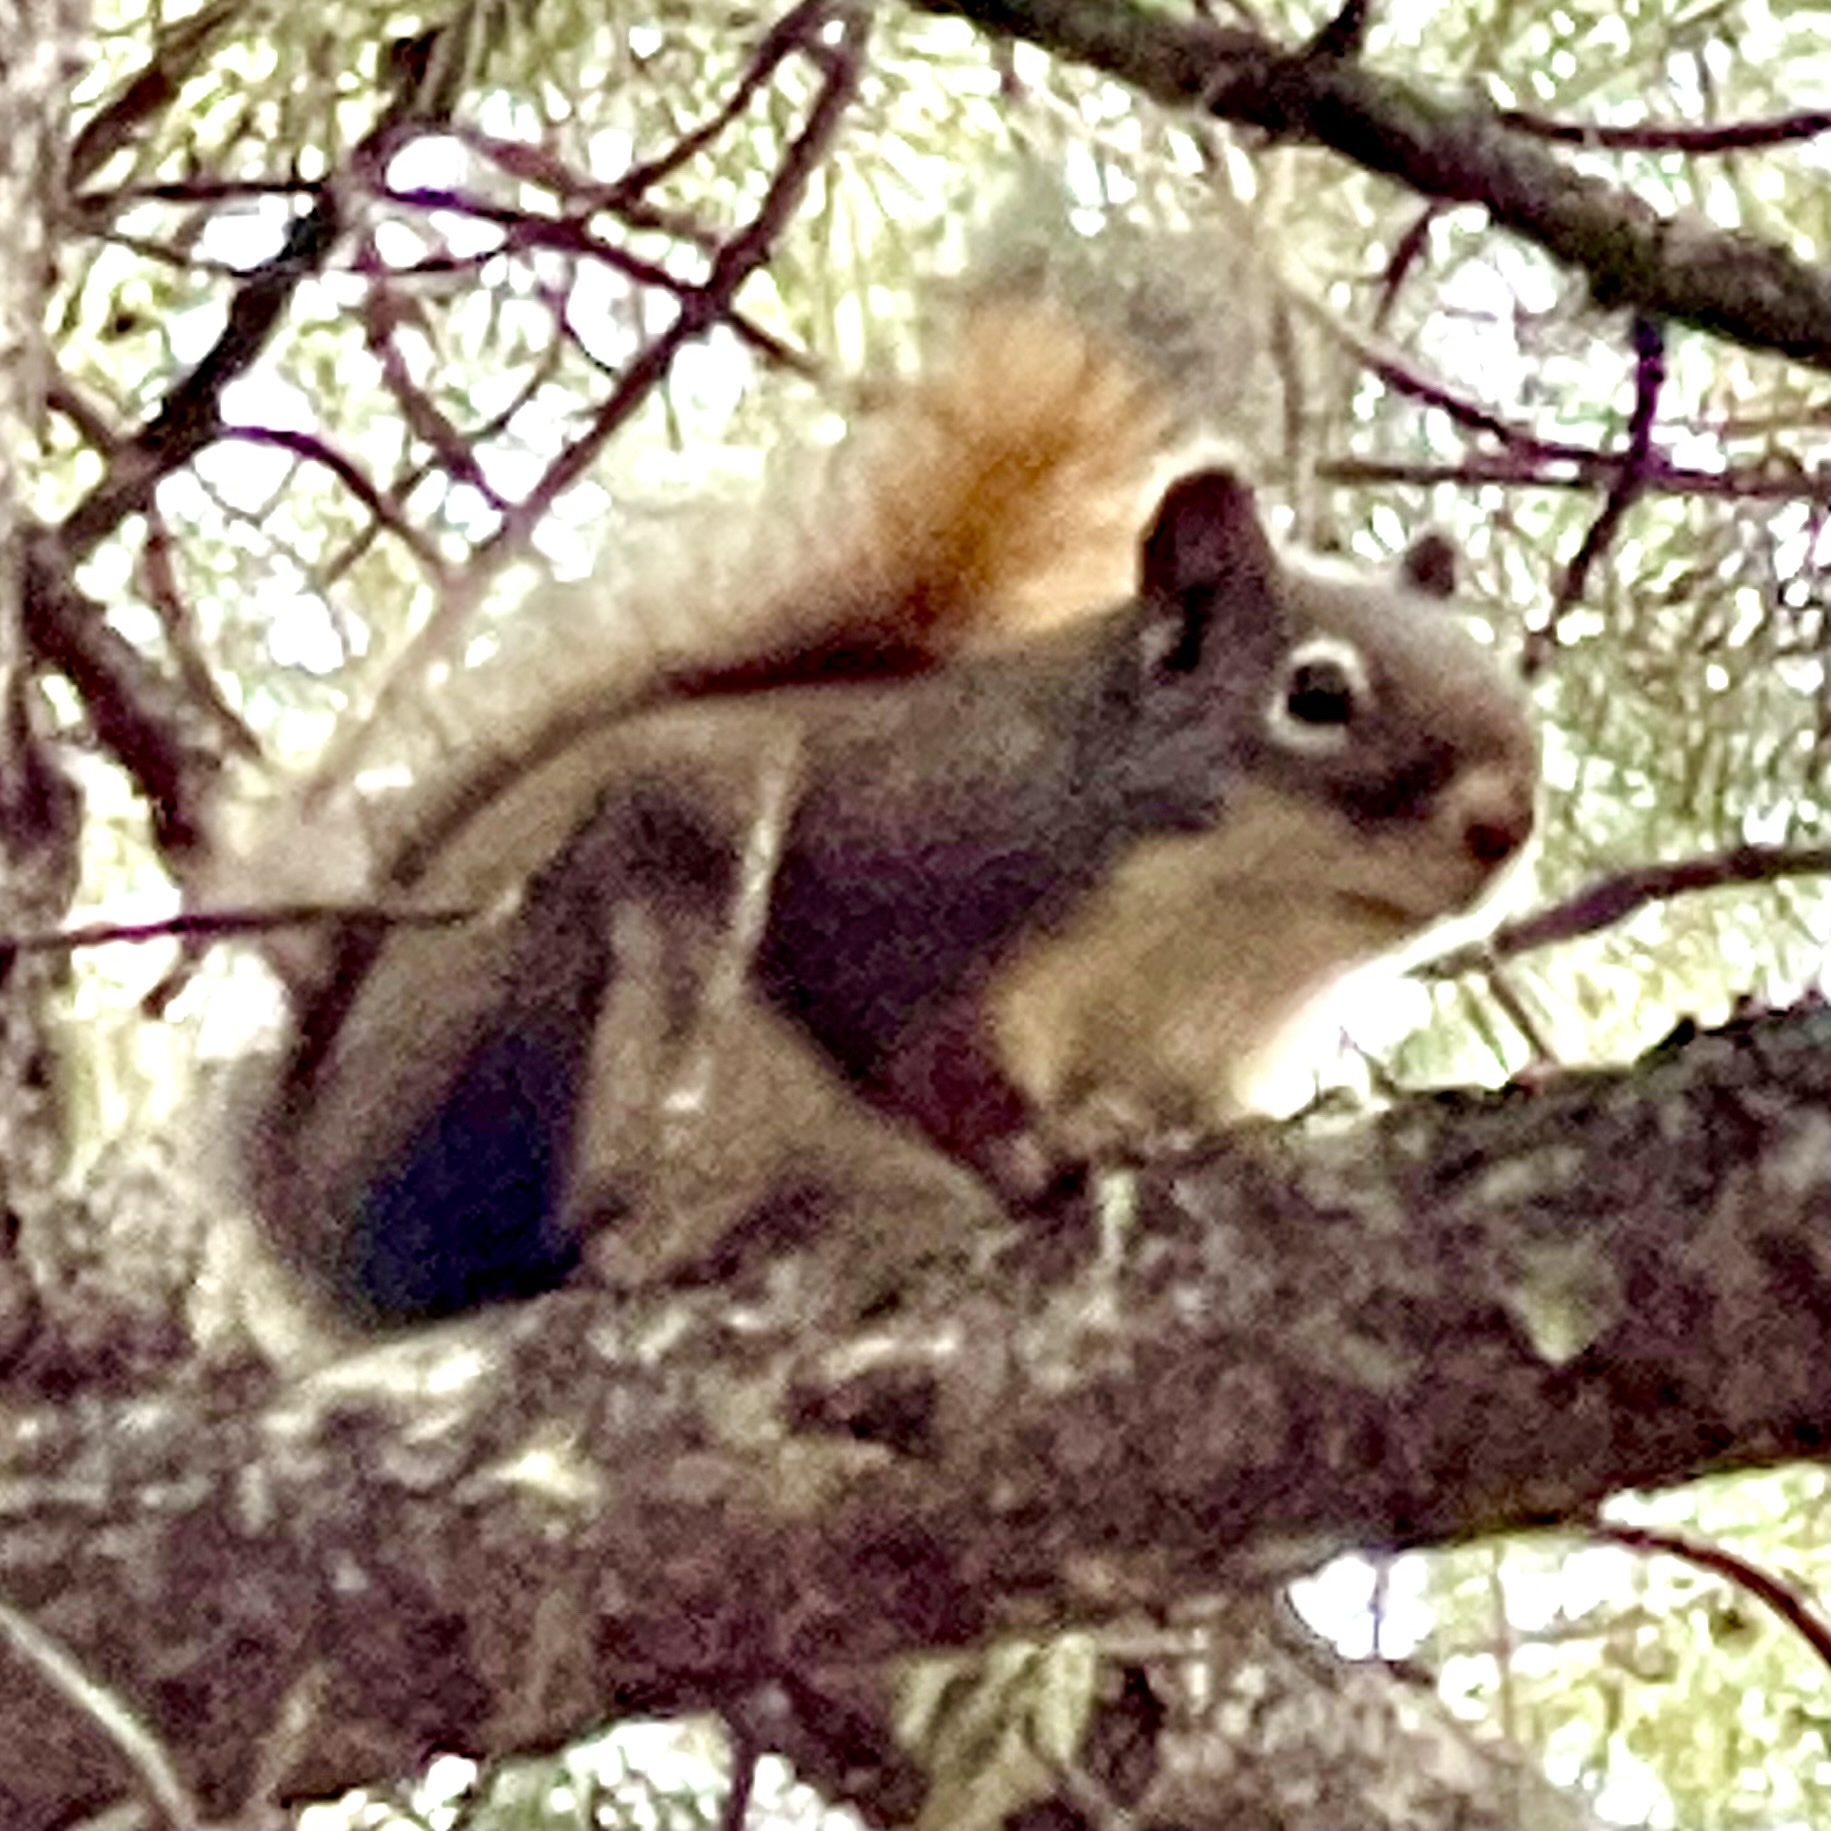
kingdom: Animalia
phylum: Chordata
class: Mammalia
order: Rodentia
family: Sciuridae
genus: Tamiasciurus
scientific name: Tamiasciurus hudsonicus
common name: Red squirrel
